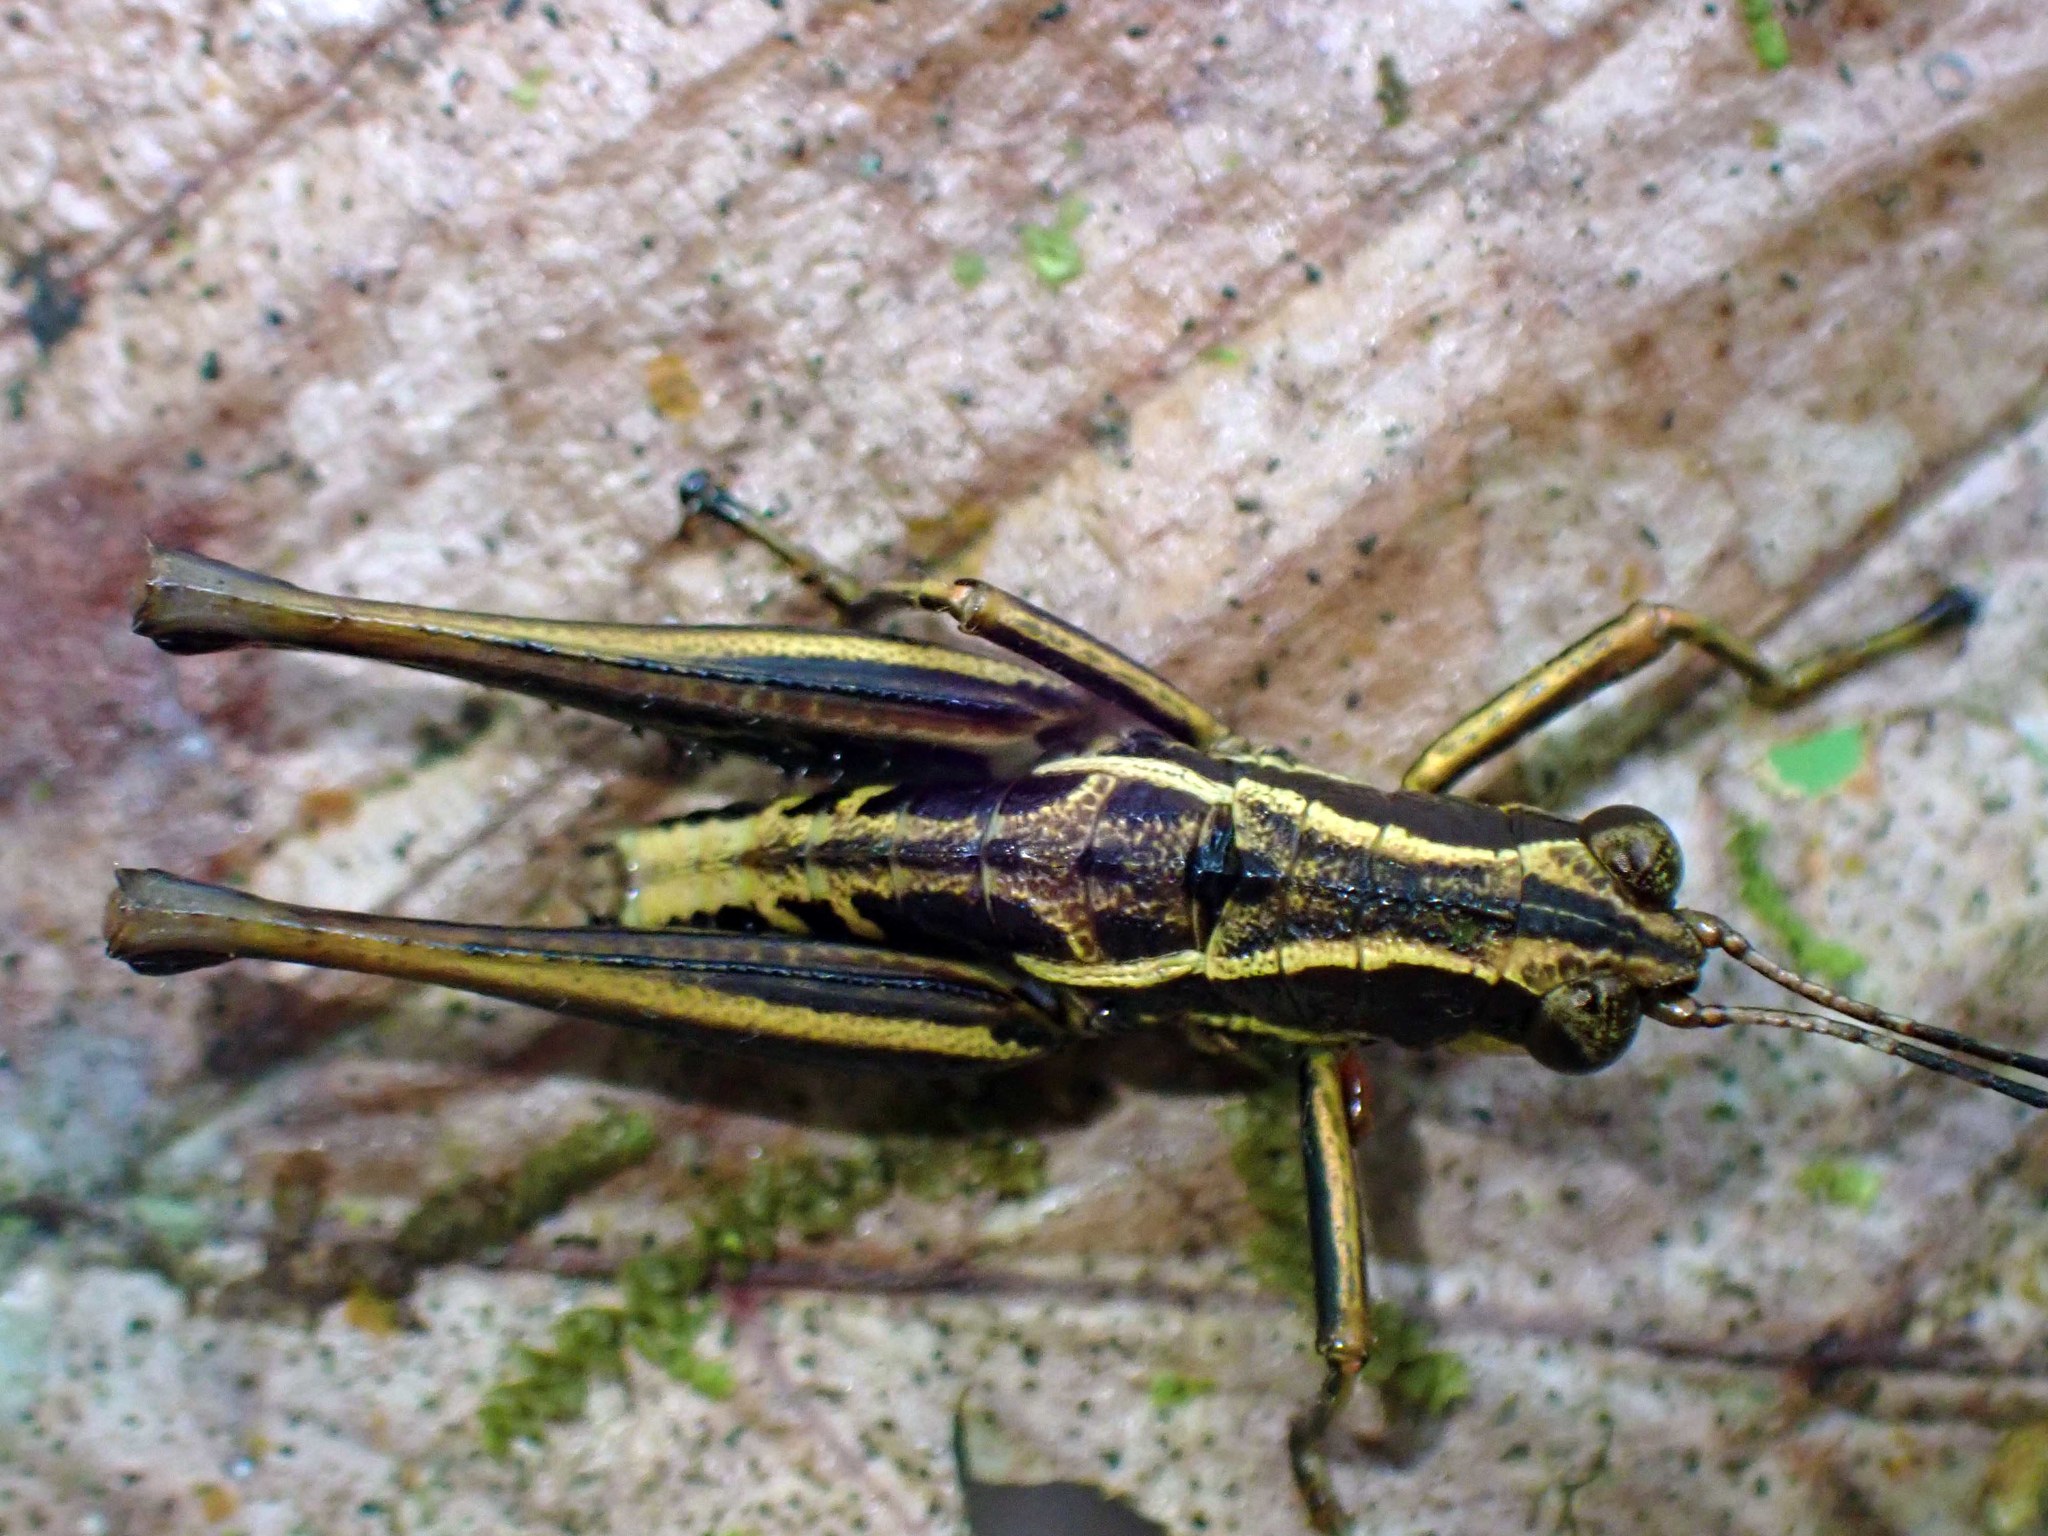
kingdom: Animalia
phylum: Arthropoda
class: Insecta
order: Orthoptera
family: Acrididae
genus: Microtylopteryx
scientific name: Microtylopteryx hebardi
